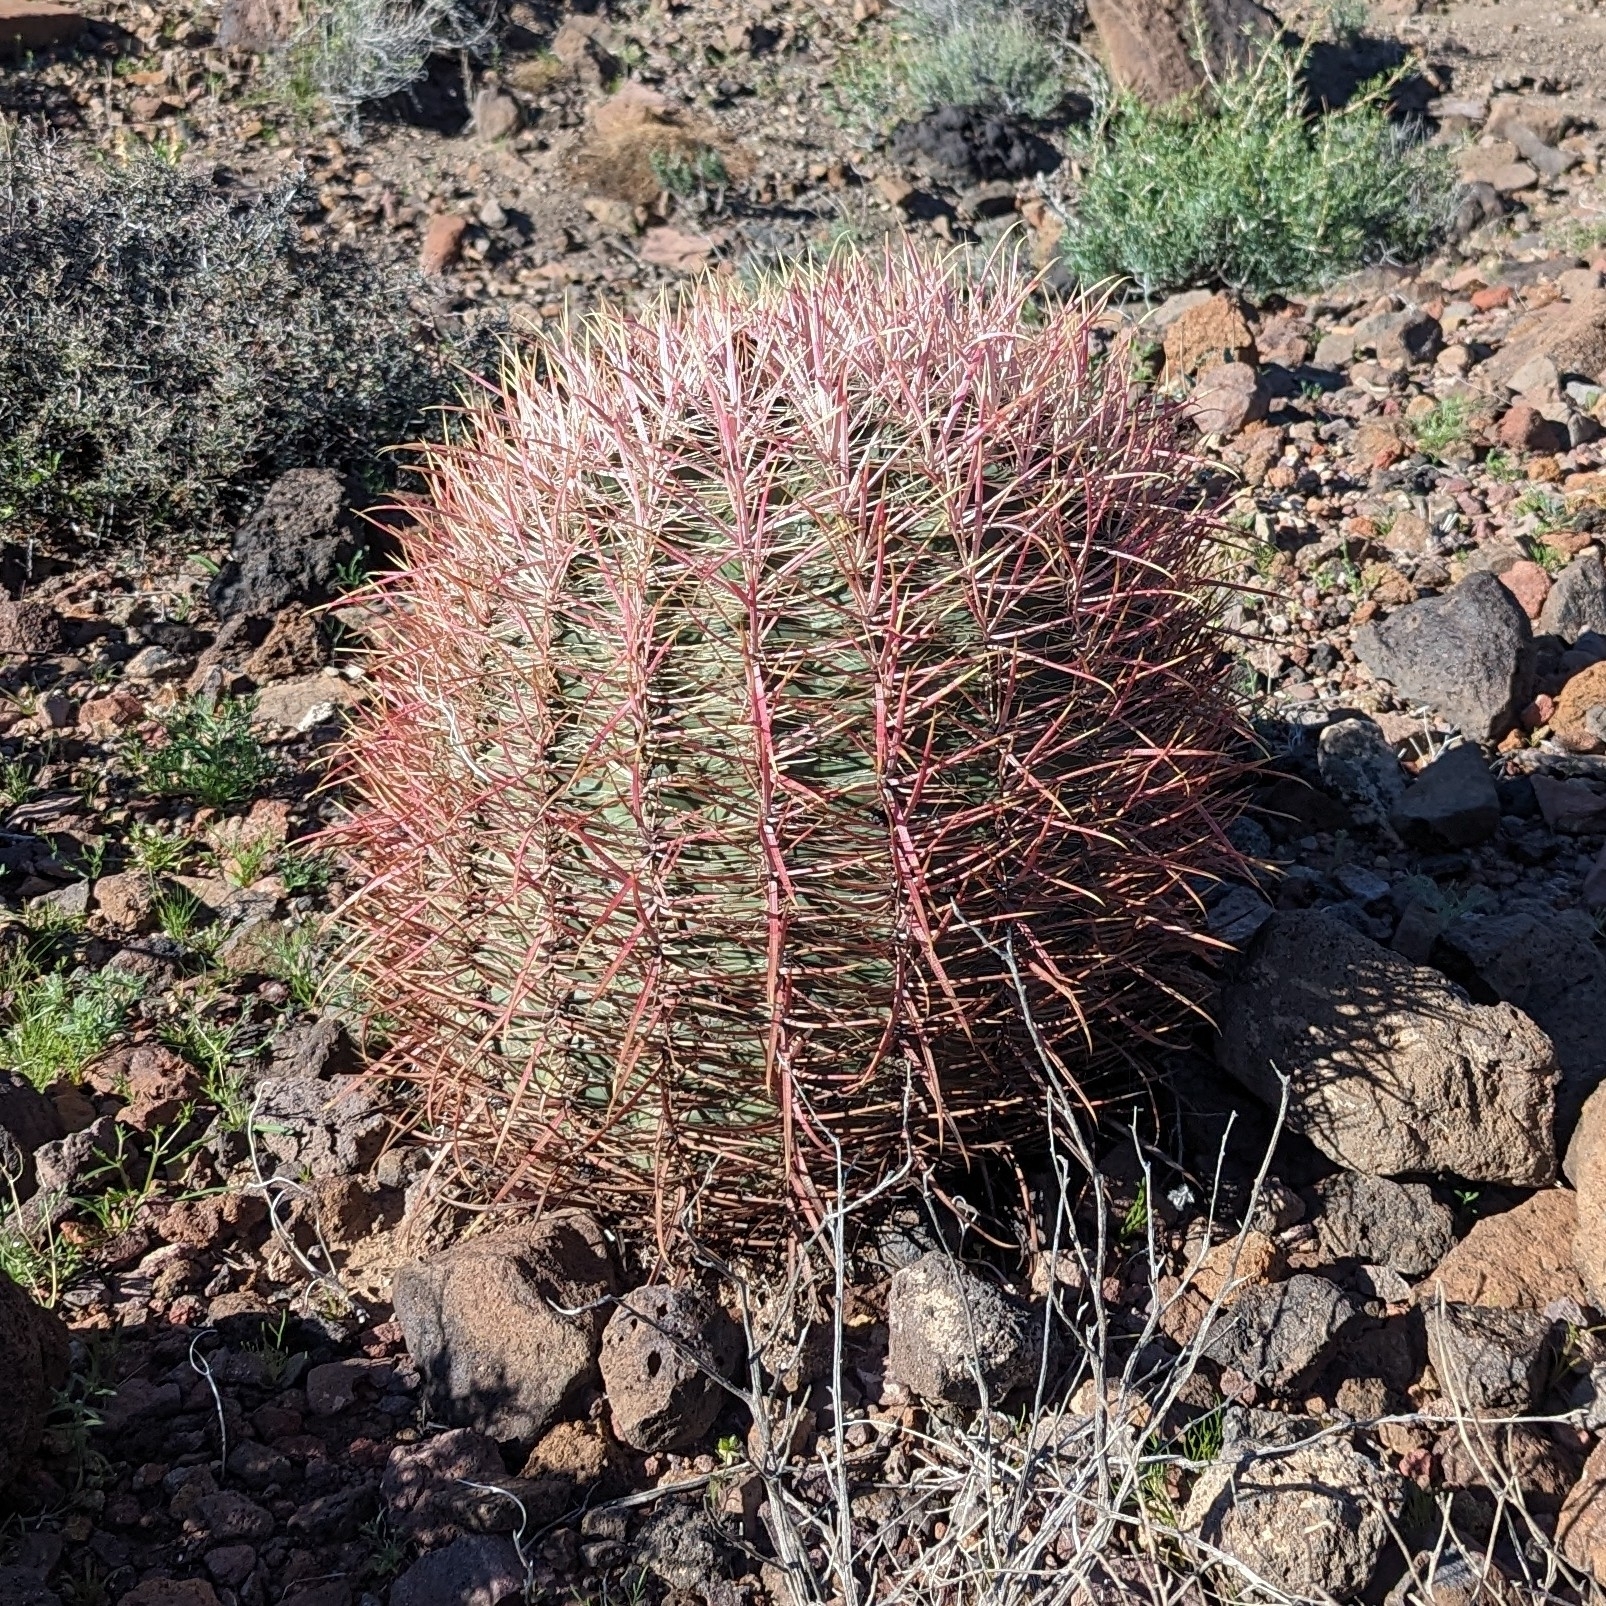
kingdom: Plantae
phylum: Tracheophyta
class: Magnoliopsida
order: Caryophyllales
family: Cactaceae
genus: Ferocactus
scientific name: Ferocactus cylindraceus
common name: California barrel cactus
